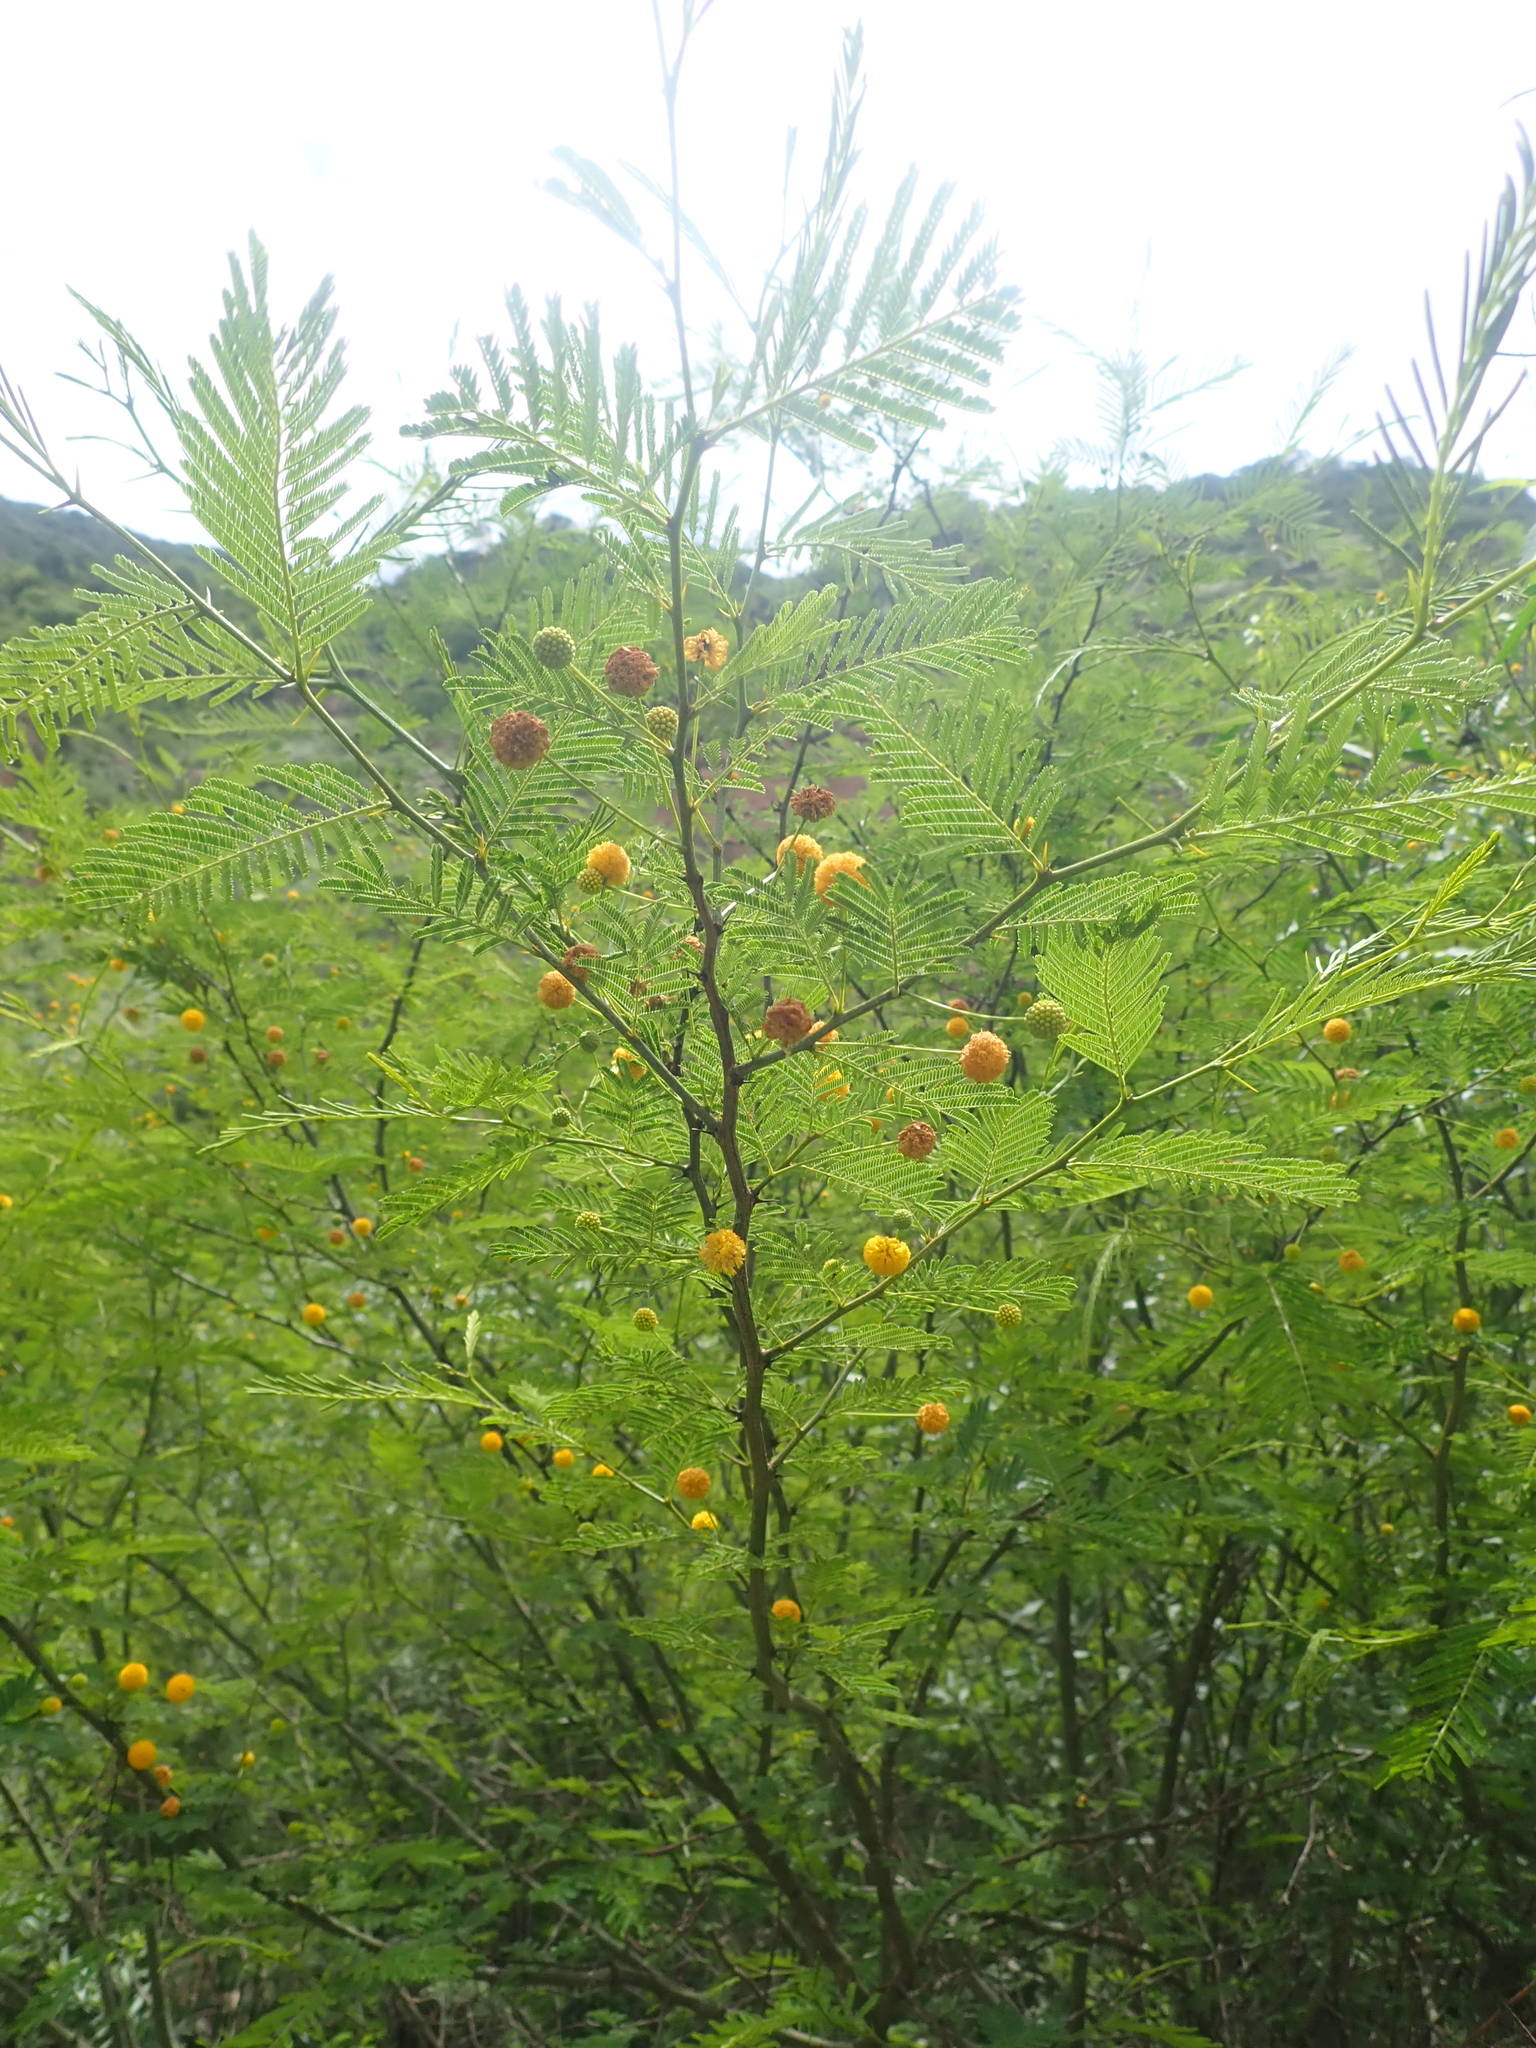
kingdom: Plantae
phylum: Tracheophyta
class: Magnoliopsida
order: Fabales
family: Fabaceae
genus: Parasenegalia
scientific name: Parasenegalia visco
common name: Visco
